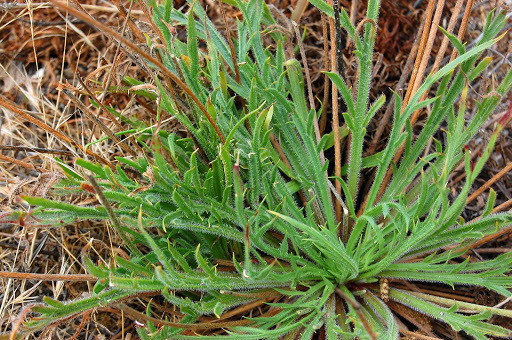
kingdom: Plantae
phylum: Tracheophyta
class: Magnoliopsida
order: Lamiales
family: Plantaginaceae
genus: Plantago
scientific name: Plantago coronopus
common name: Buck's-horn plantain
